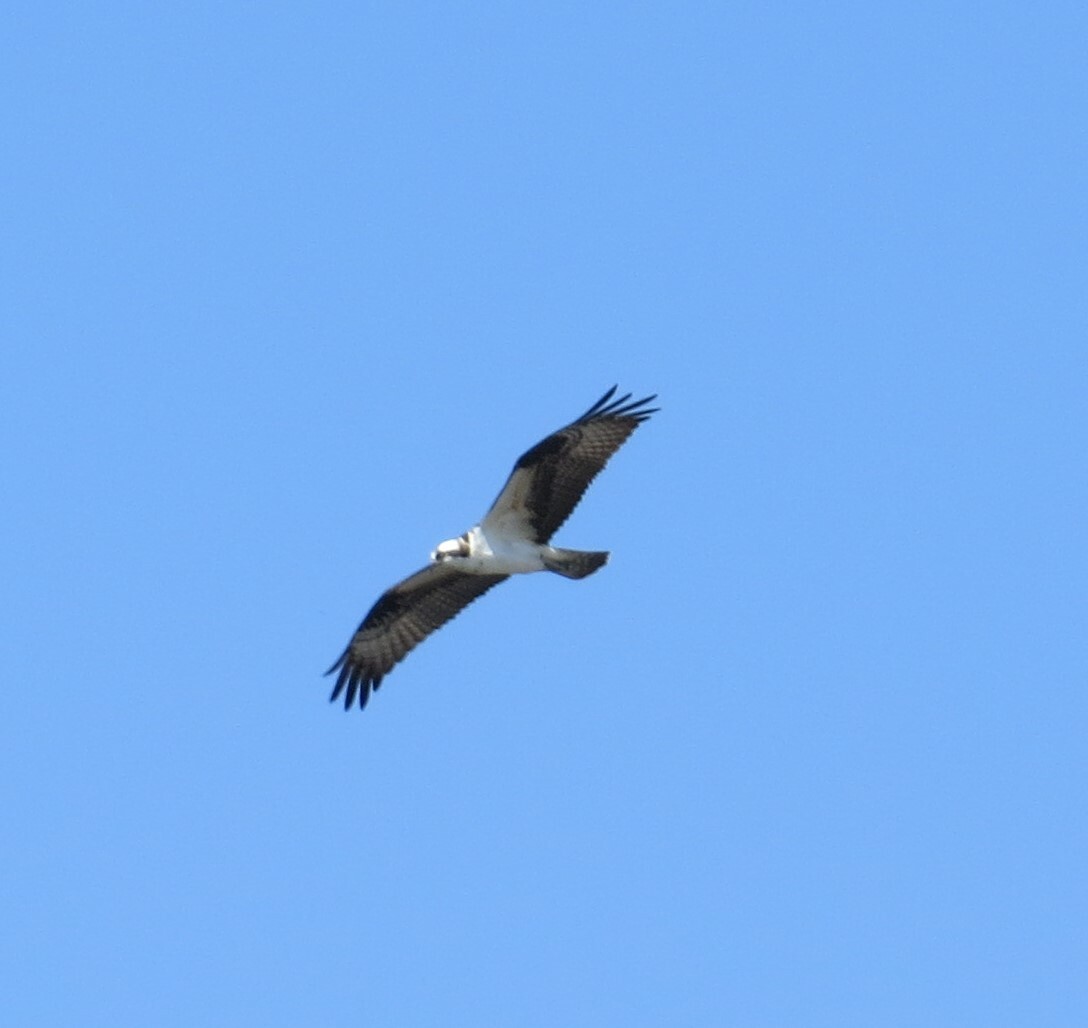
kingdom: Animalia
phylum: Chordata
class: Aves
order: Accipitriformes
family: Pandionidae
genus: Pandion
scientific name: Pandion haliaetus
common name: Osprey
